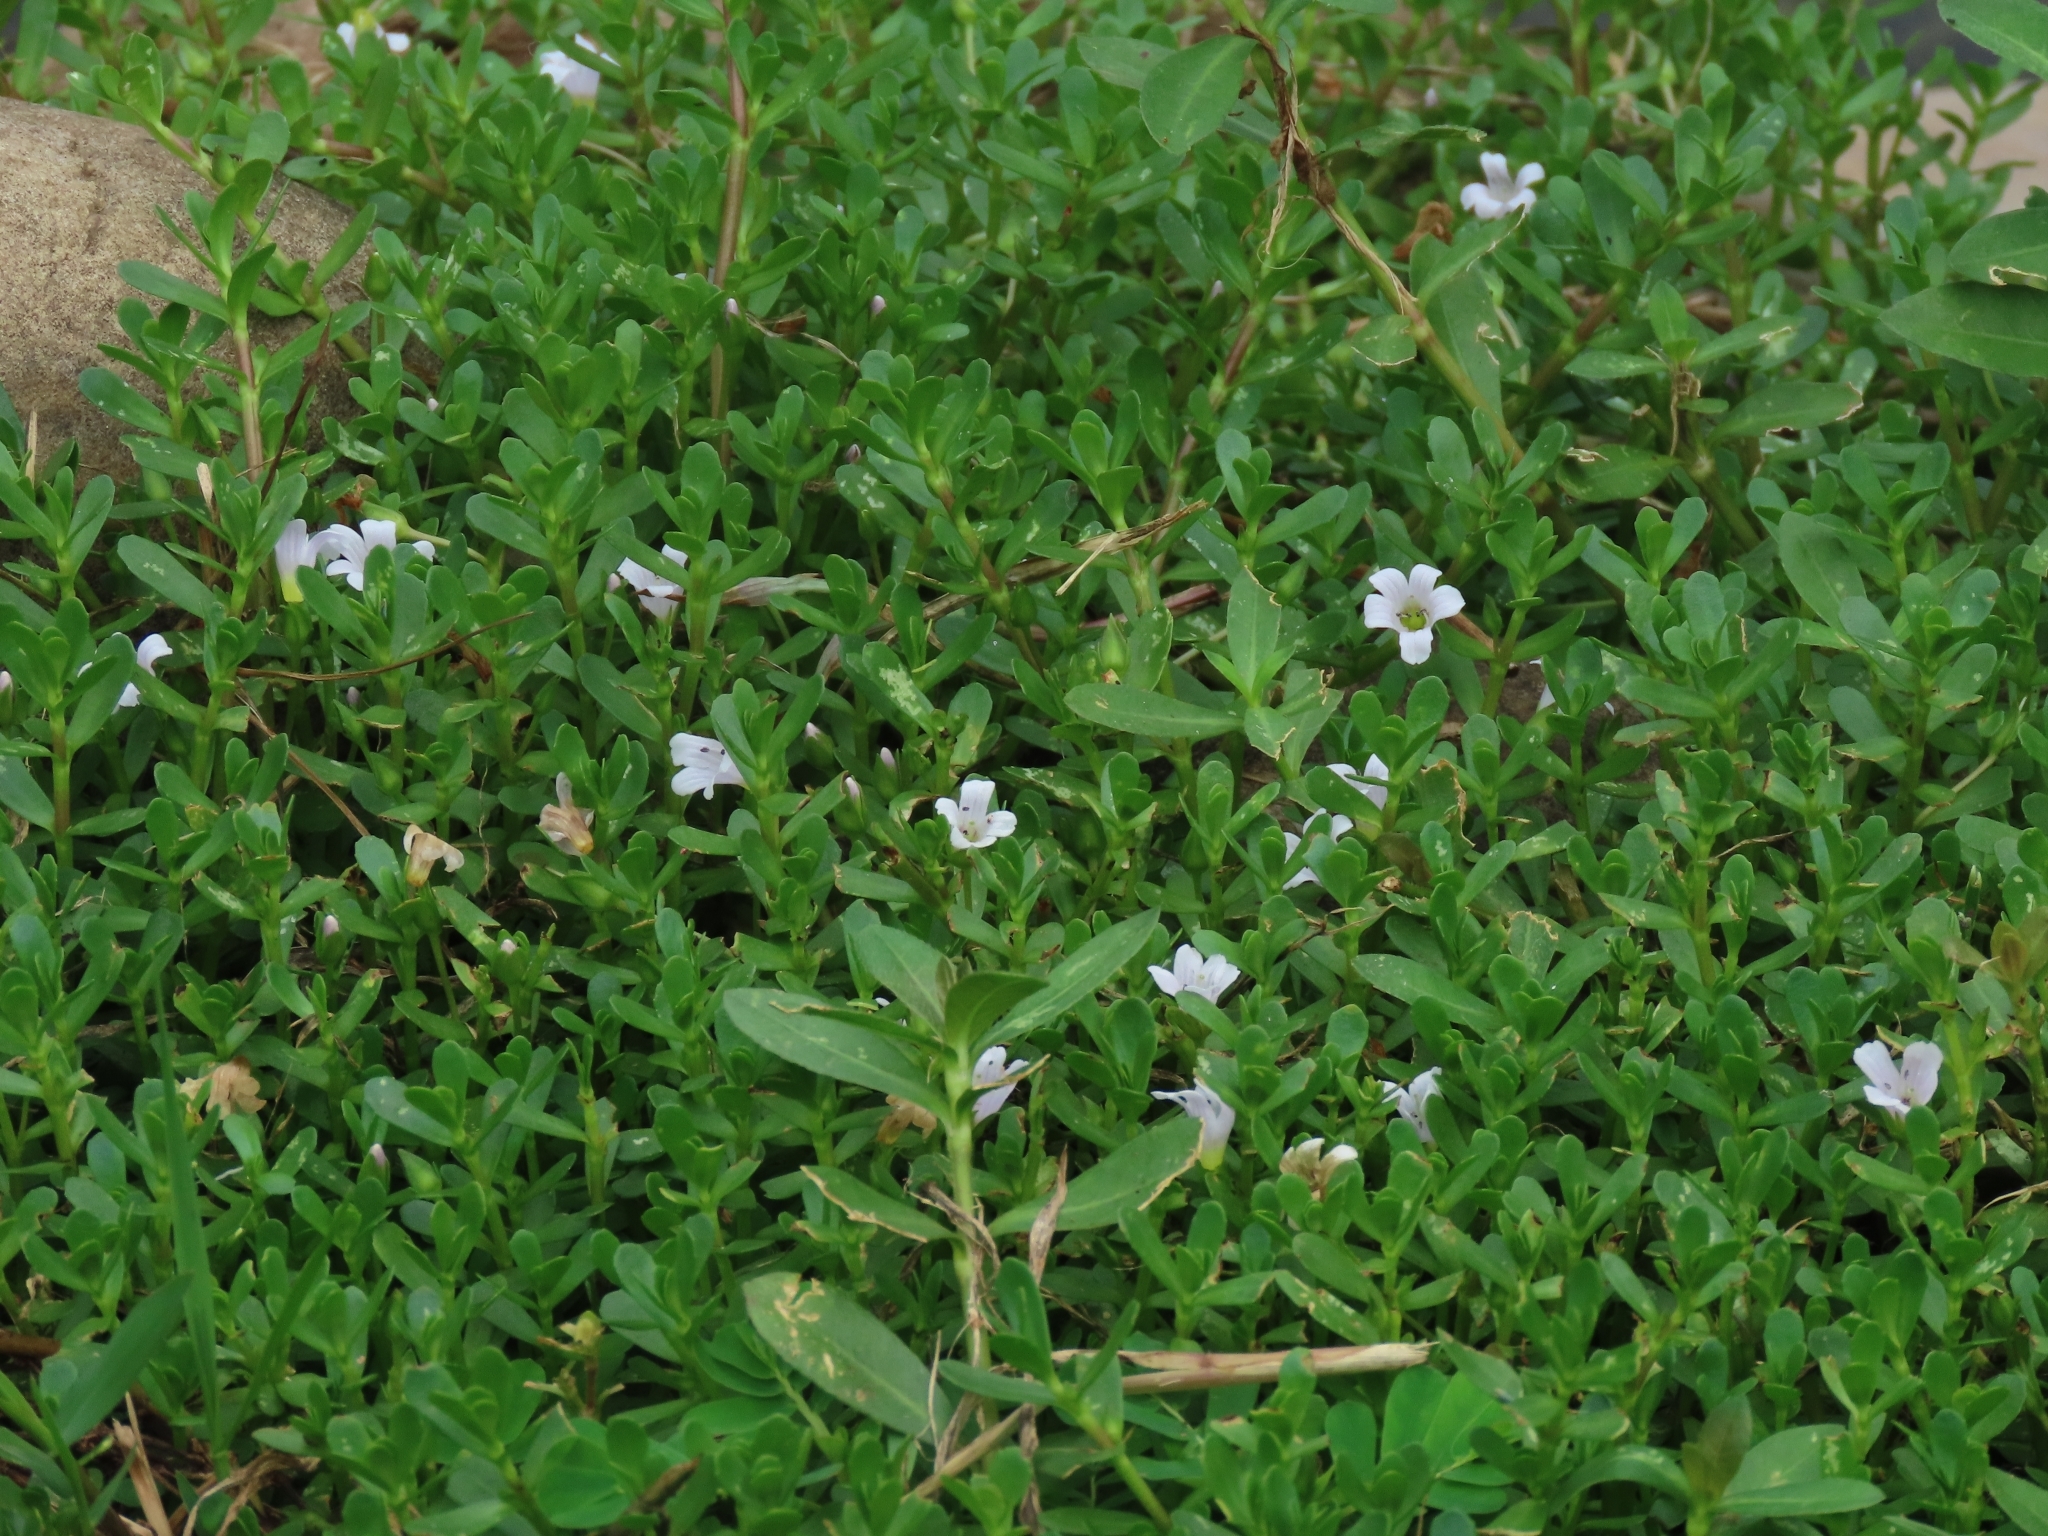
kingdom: Plantae
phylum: Tracheophyta
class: Magnoliopsida
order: Lamiales
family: Plantaginaceae
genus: Bacopa
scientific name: Bacopa monnieri
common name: Indian-pennywort
